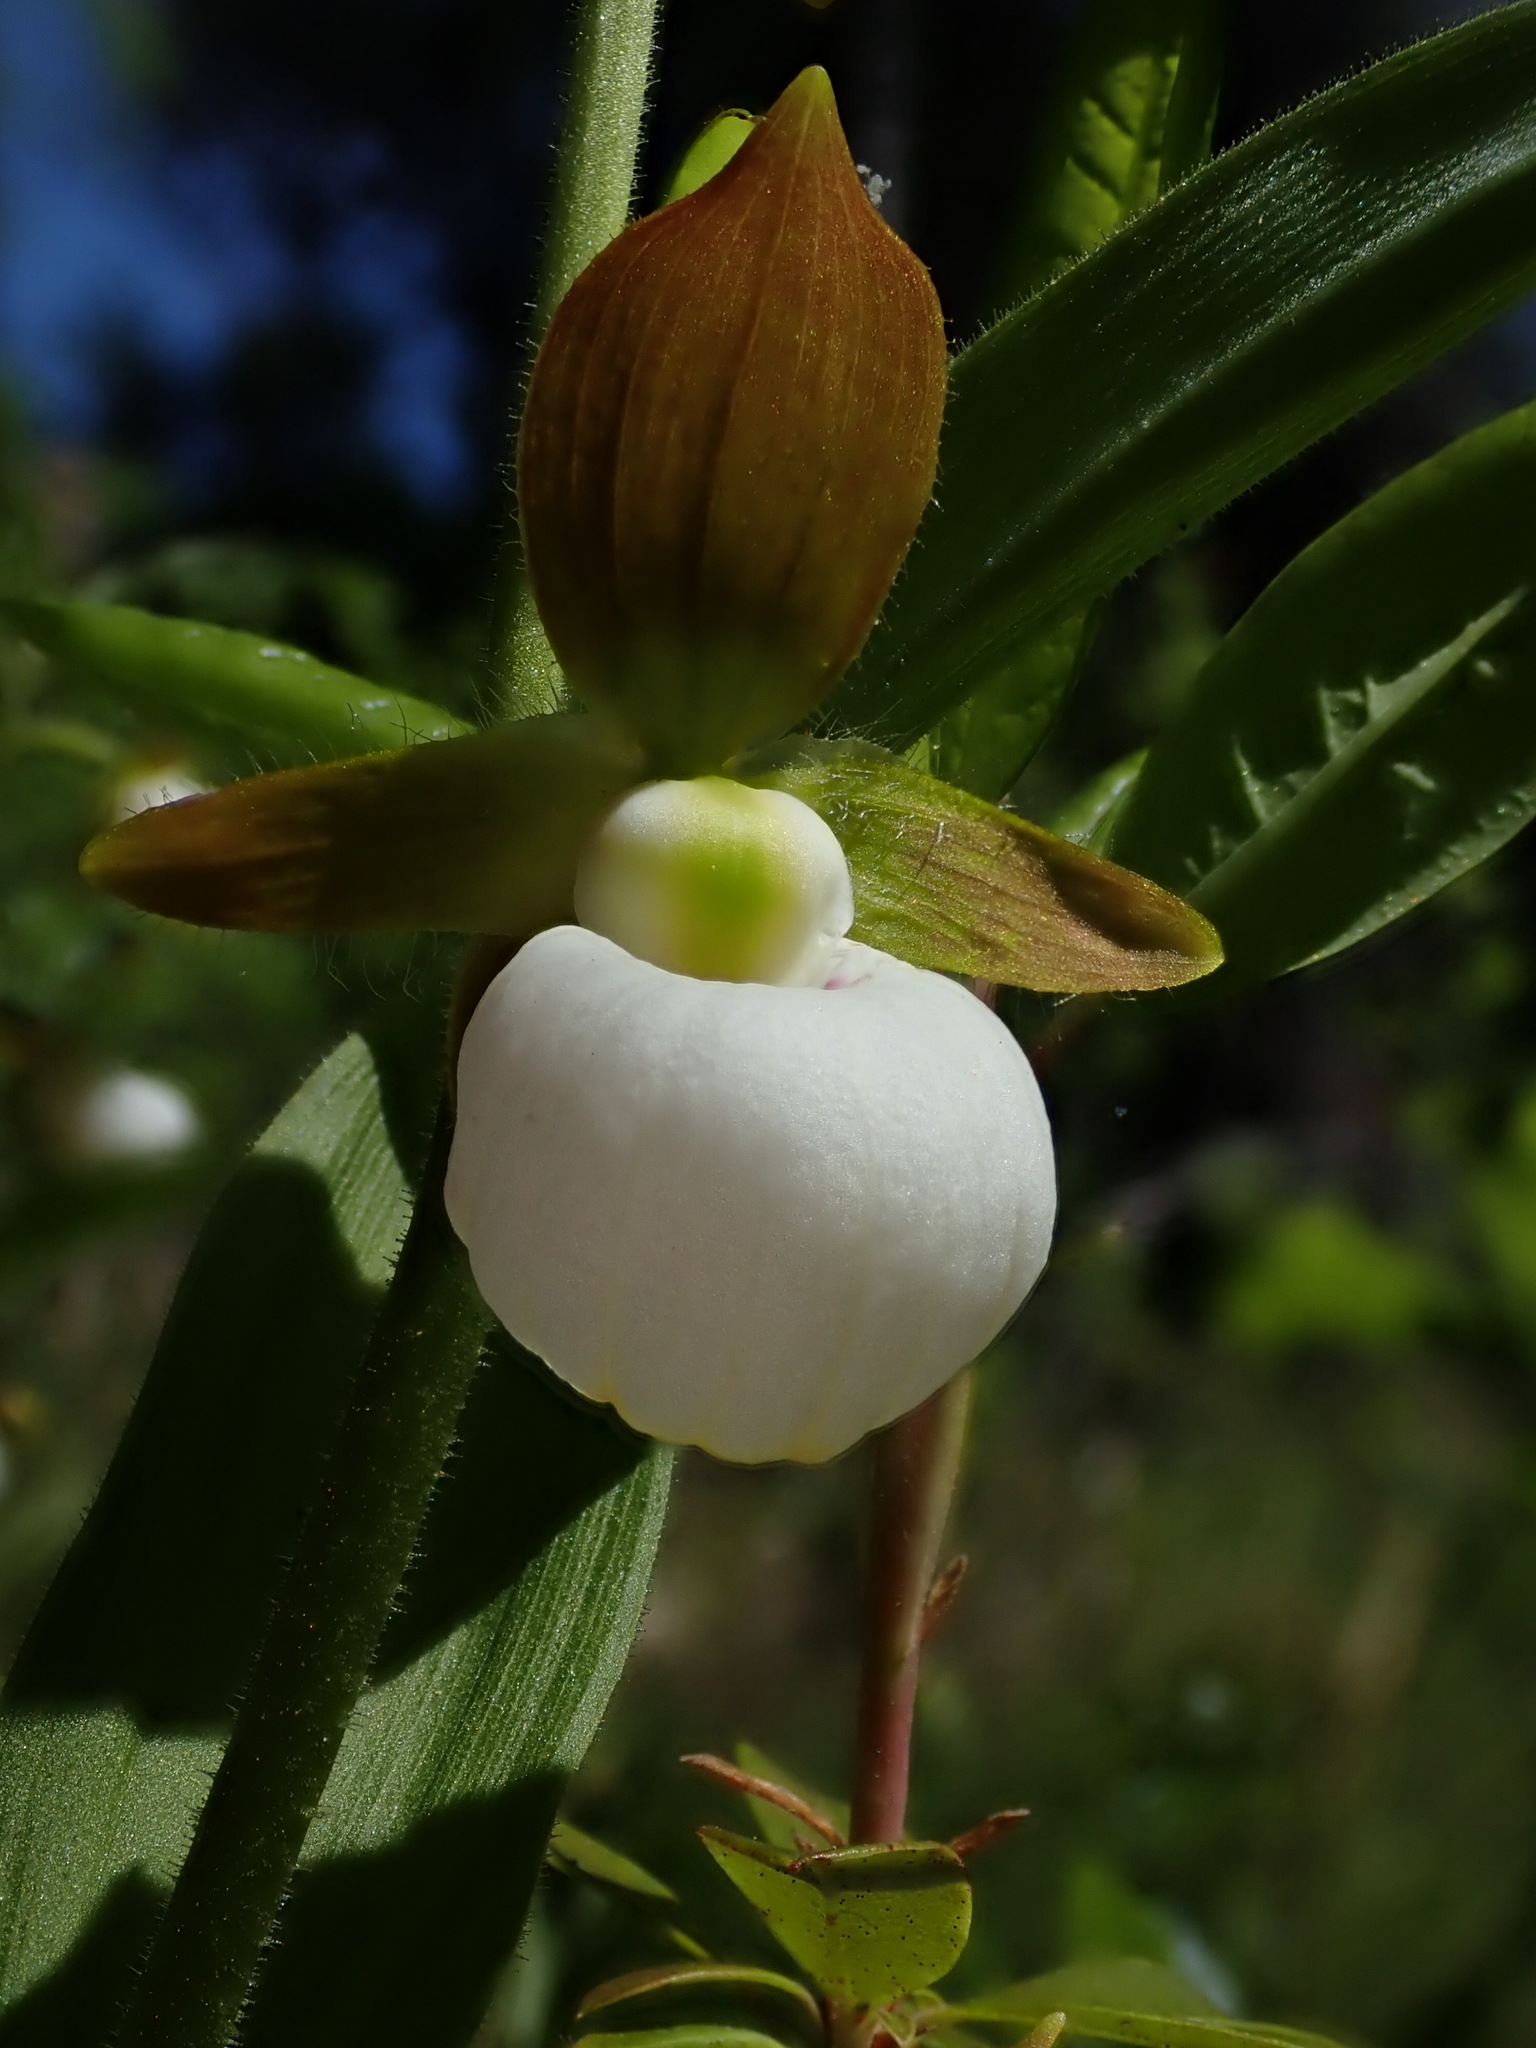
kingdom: Plantae
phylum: Tracheophyta
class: Liliopsida
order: Asparagales
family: Orchidaceae
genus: Cypripedium
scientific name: Cypripedium californicum
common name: California lady's slipper
